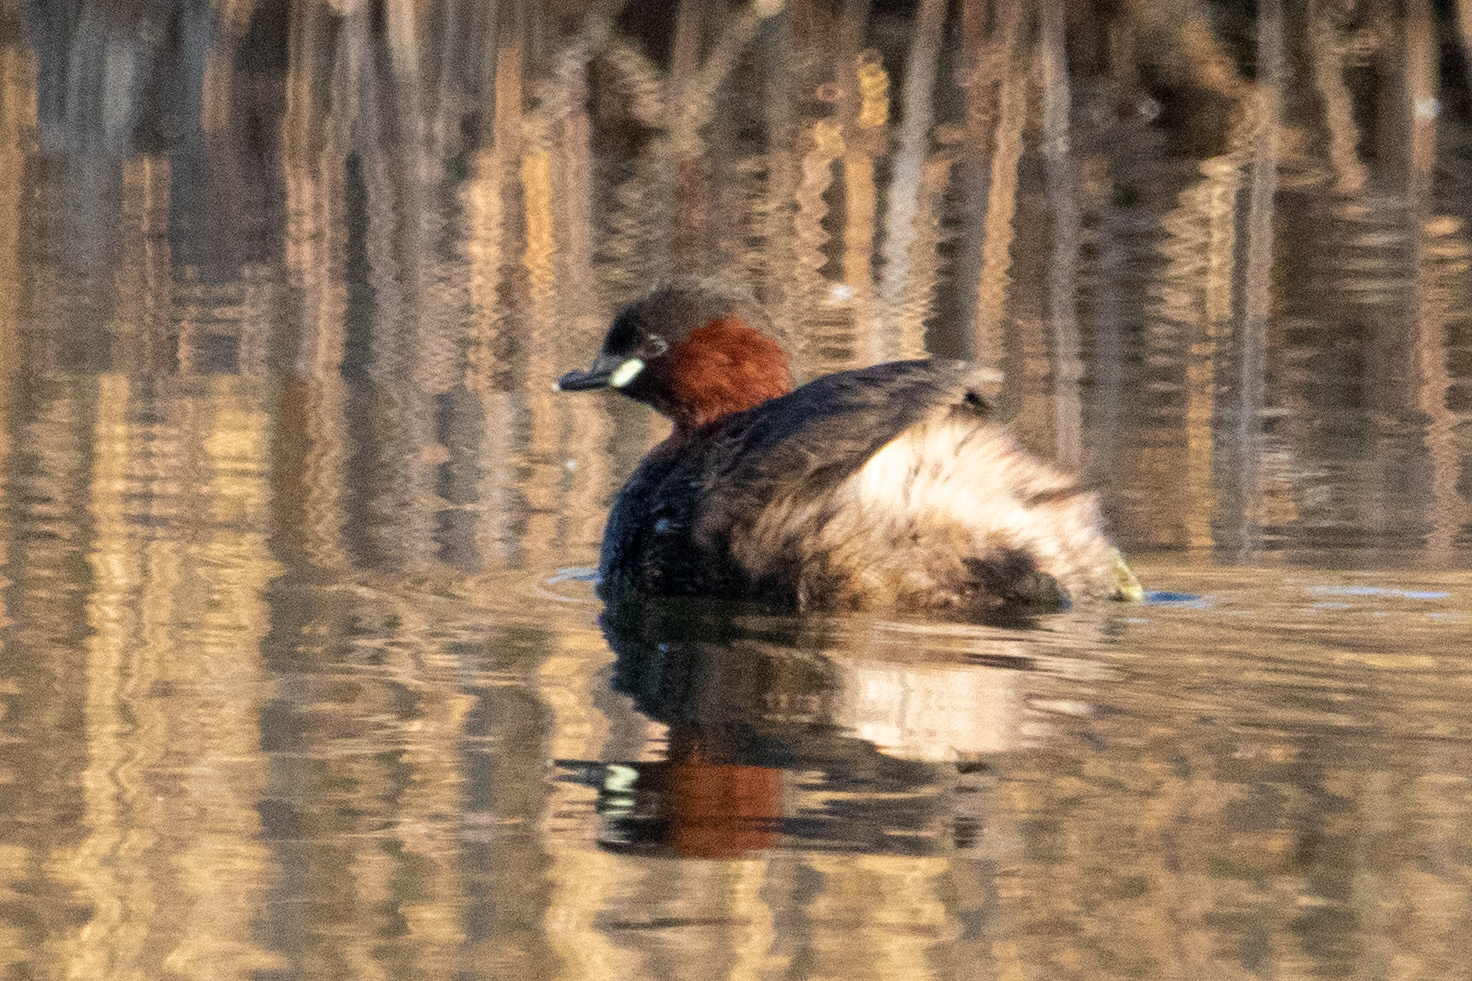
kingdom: Animalia
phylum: Chordata
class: Aves
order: Podicipediformes
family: Podicipedidae
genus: Tachybaptus
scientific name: Tachybaptus ruficollis
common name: Little grebe
